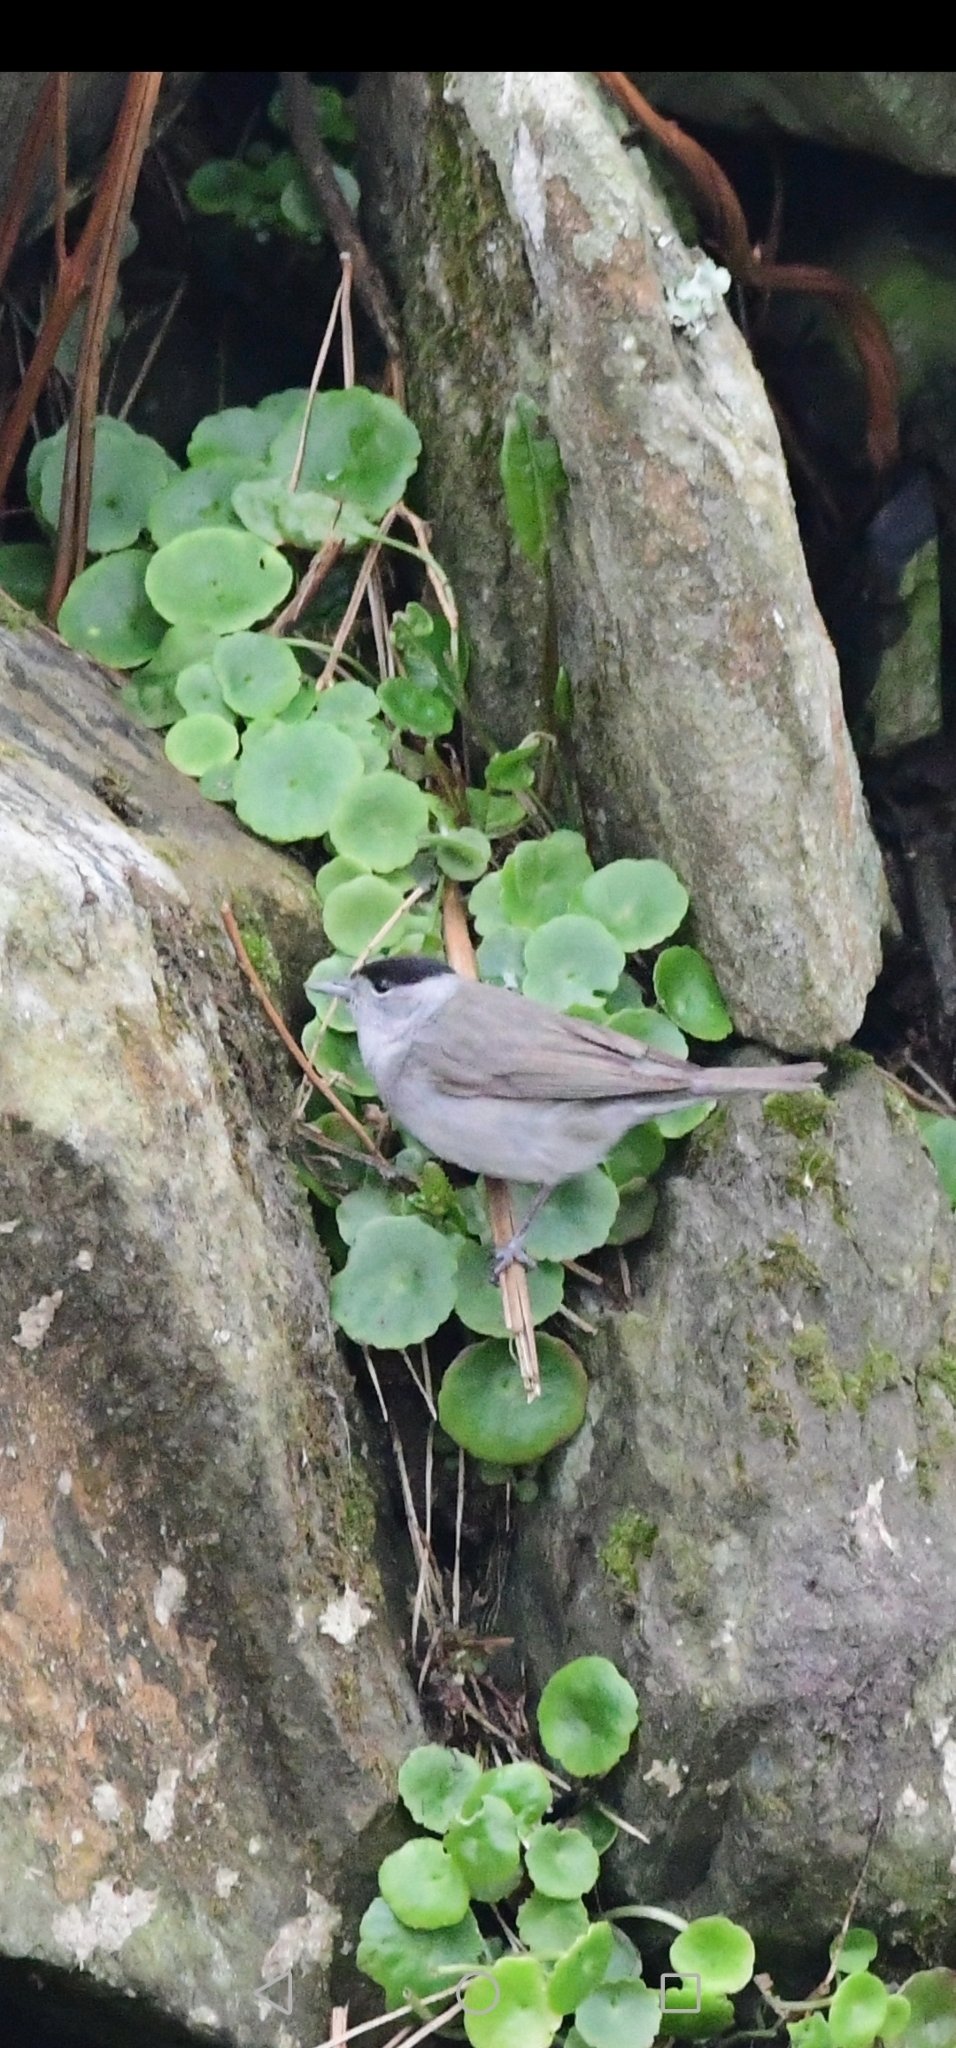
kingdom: Animalia
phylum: Chordata
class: Aves
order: Passeriformes
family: Sylviidae
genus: Sylvia
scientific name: Sylvia atricapilla
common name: Eurasian blackcap
